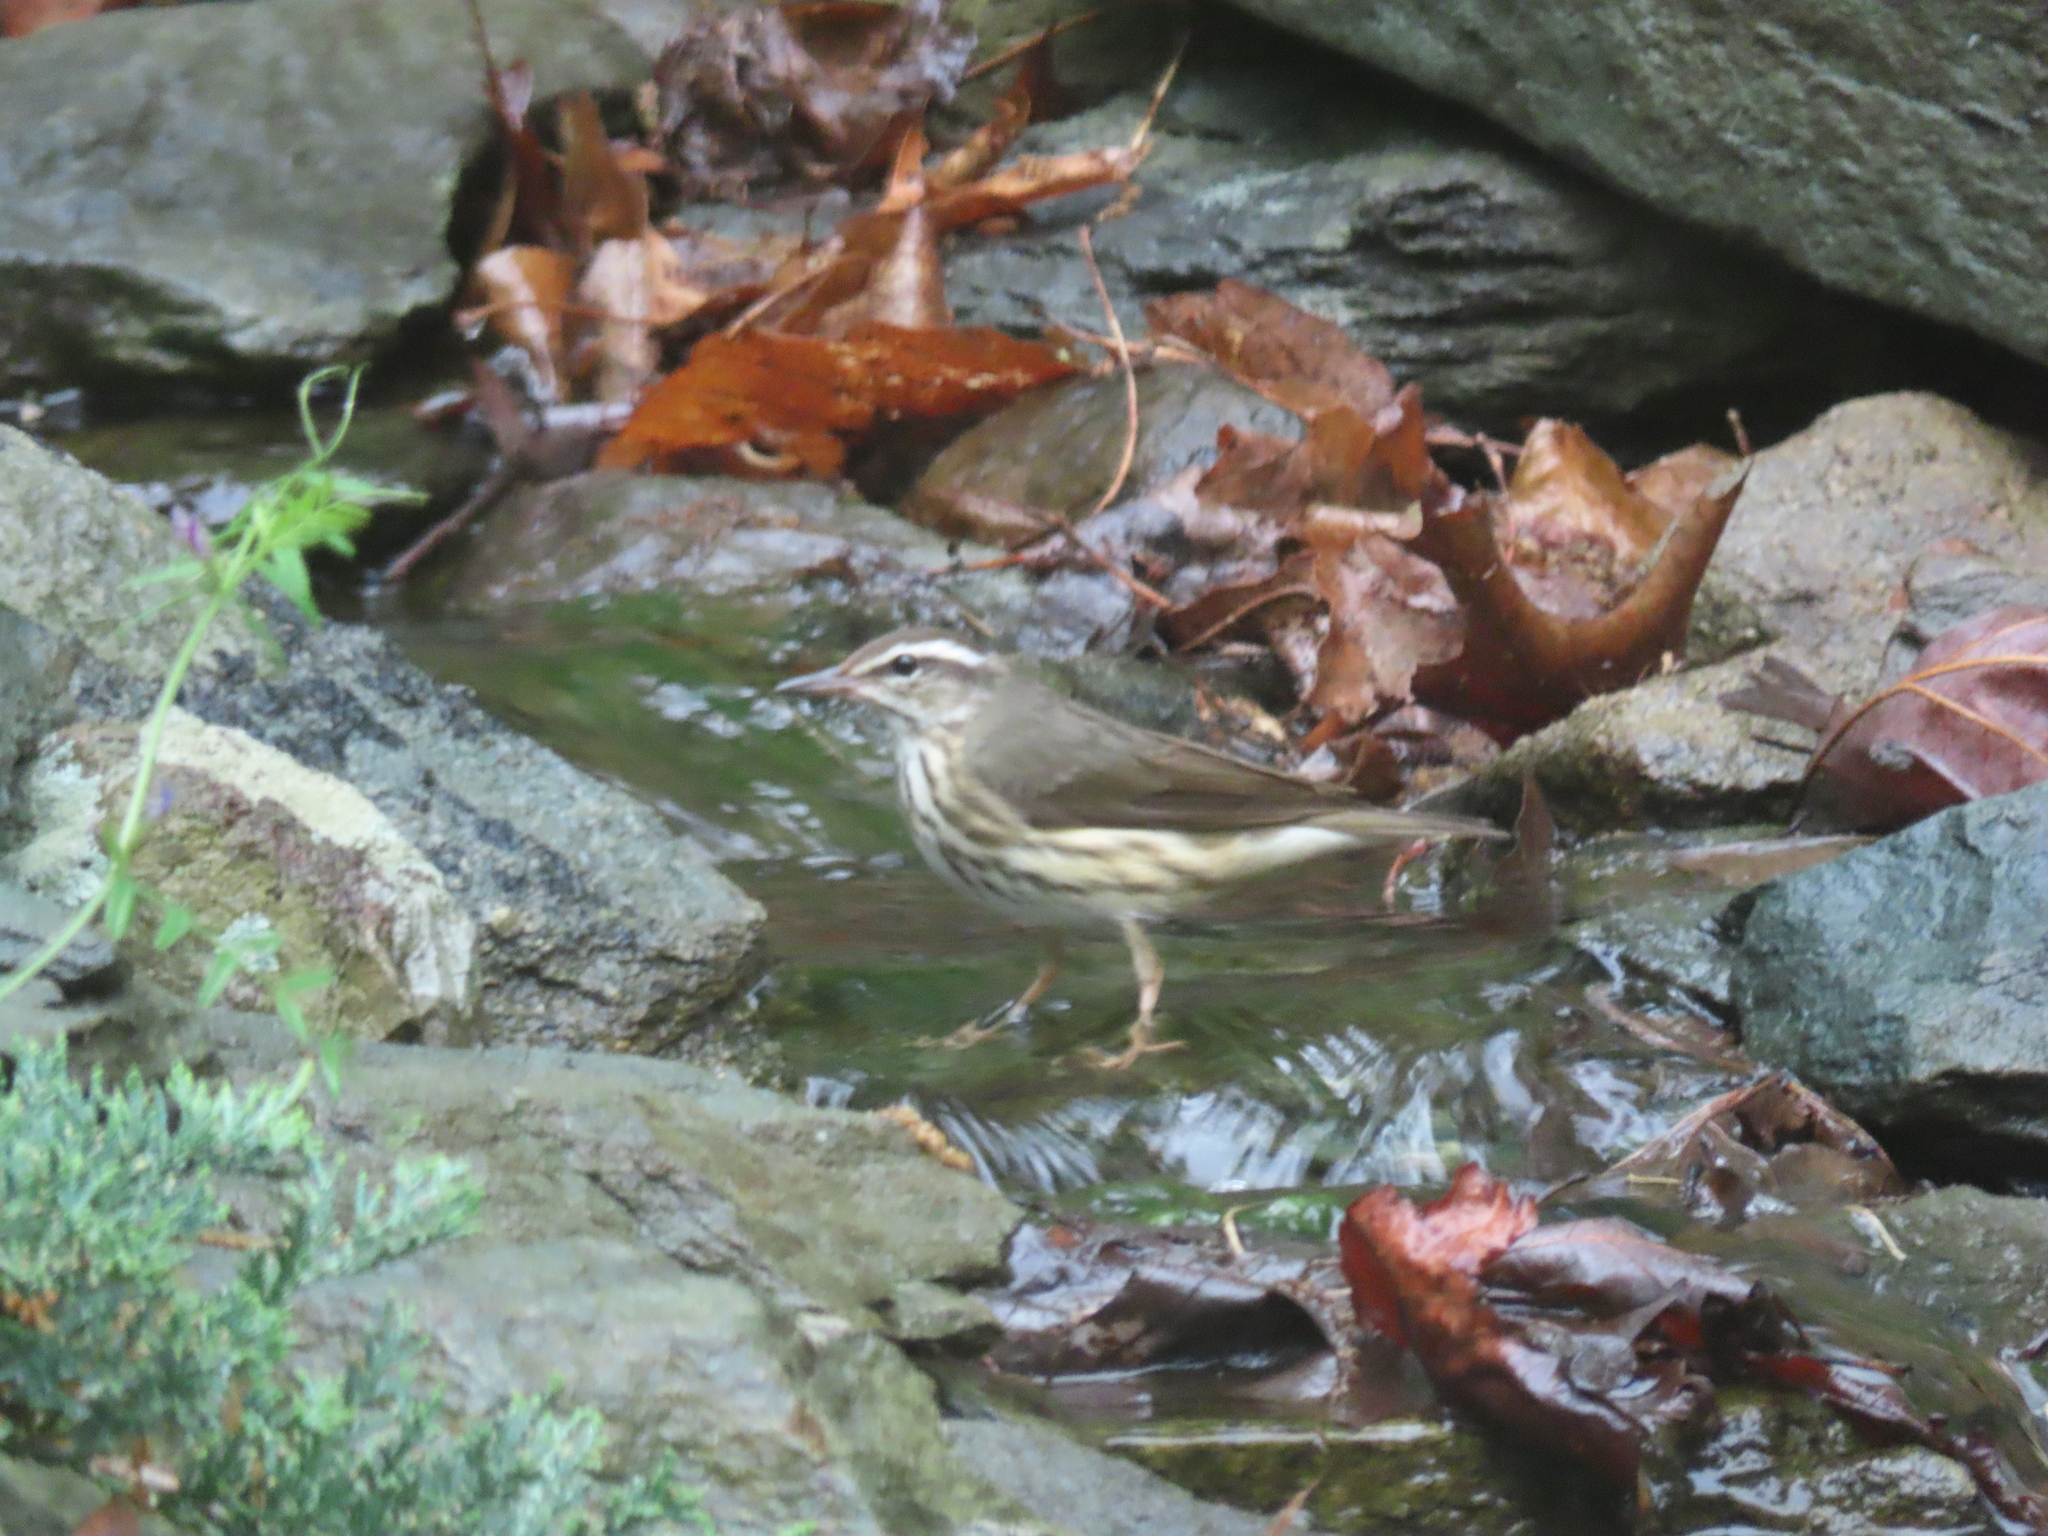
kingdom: Animalia
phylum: Chordata
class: Aves
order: Passeriformes
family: Parulidae
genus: Parkesia
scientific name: Parkesia motacilla
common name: Louisiana waterthrush
